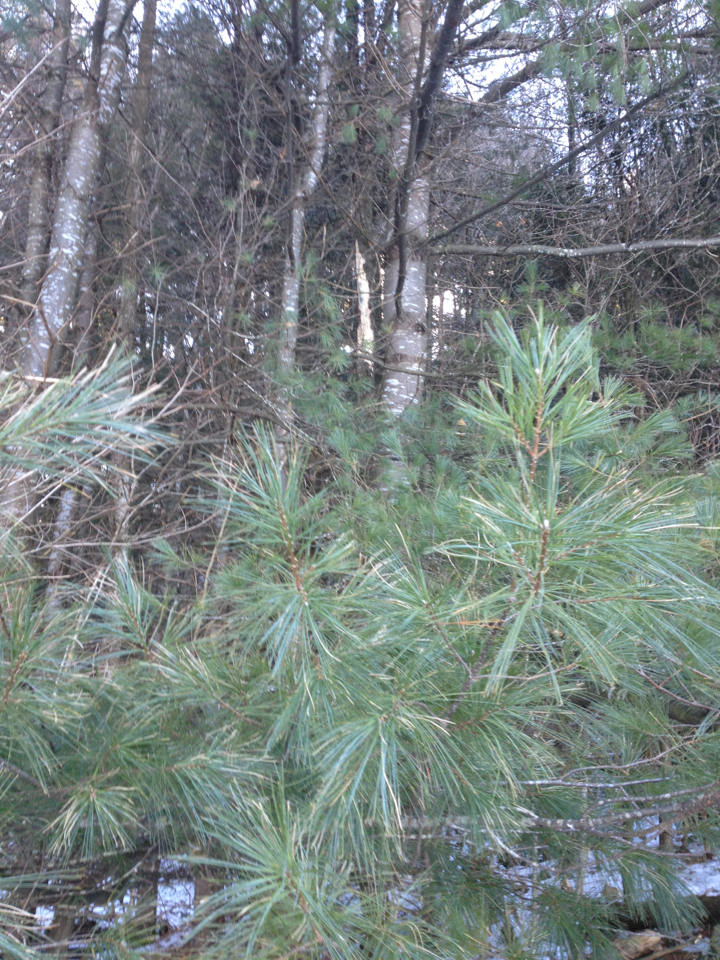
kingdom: Plantae
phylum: Tracheophyta
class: Pinopsida
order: Pinales
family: Pinaceae
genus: Pinus
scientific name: Pinus strobus
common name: Weymouth pine
